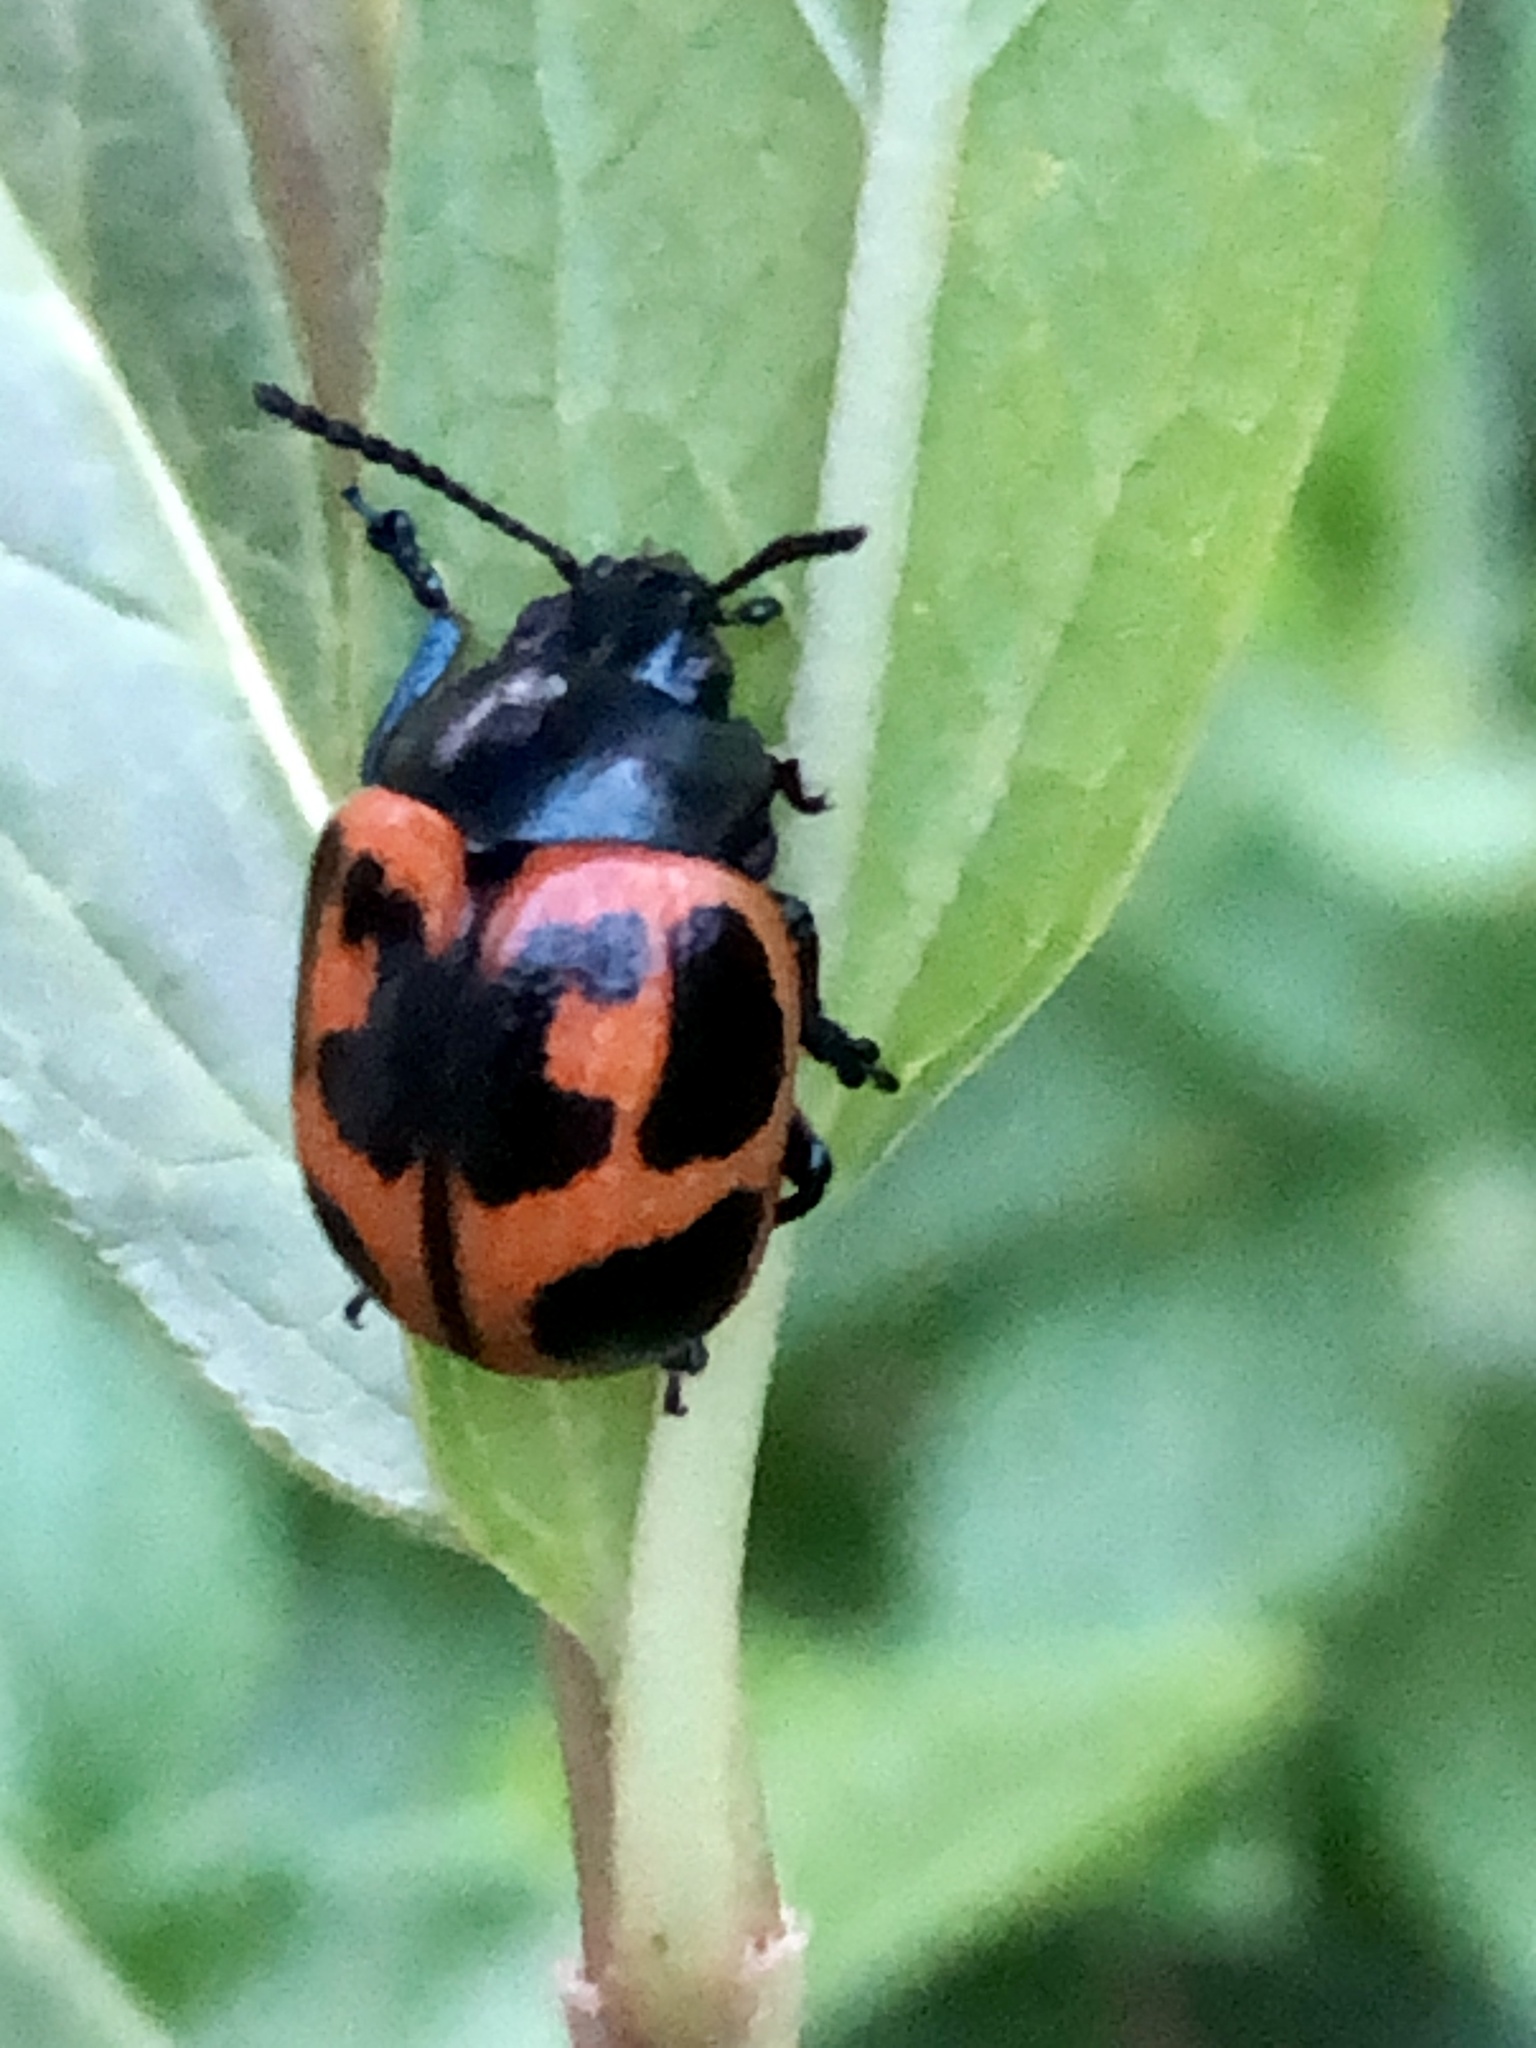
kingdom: Animalia
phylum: Arthropoda
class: Insecta
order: Coleoptera
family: Chrysomelidae
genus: Labidomera
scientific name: Labidomera clivicollis
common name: Swamp milkweed leaf beetle
